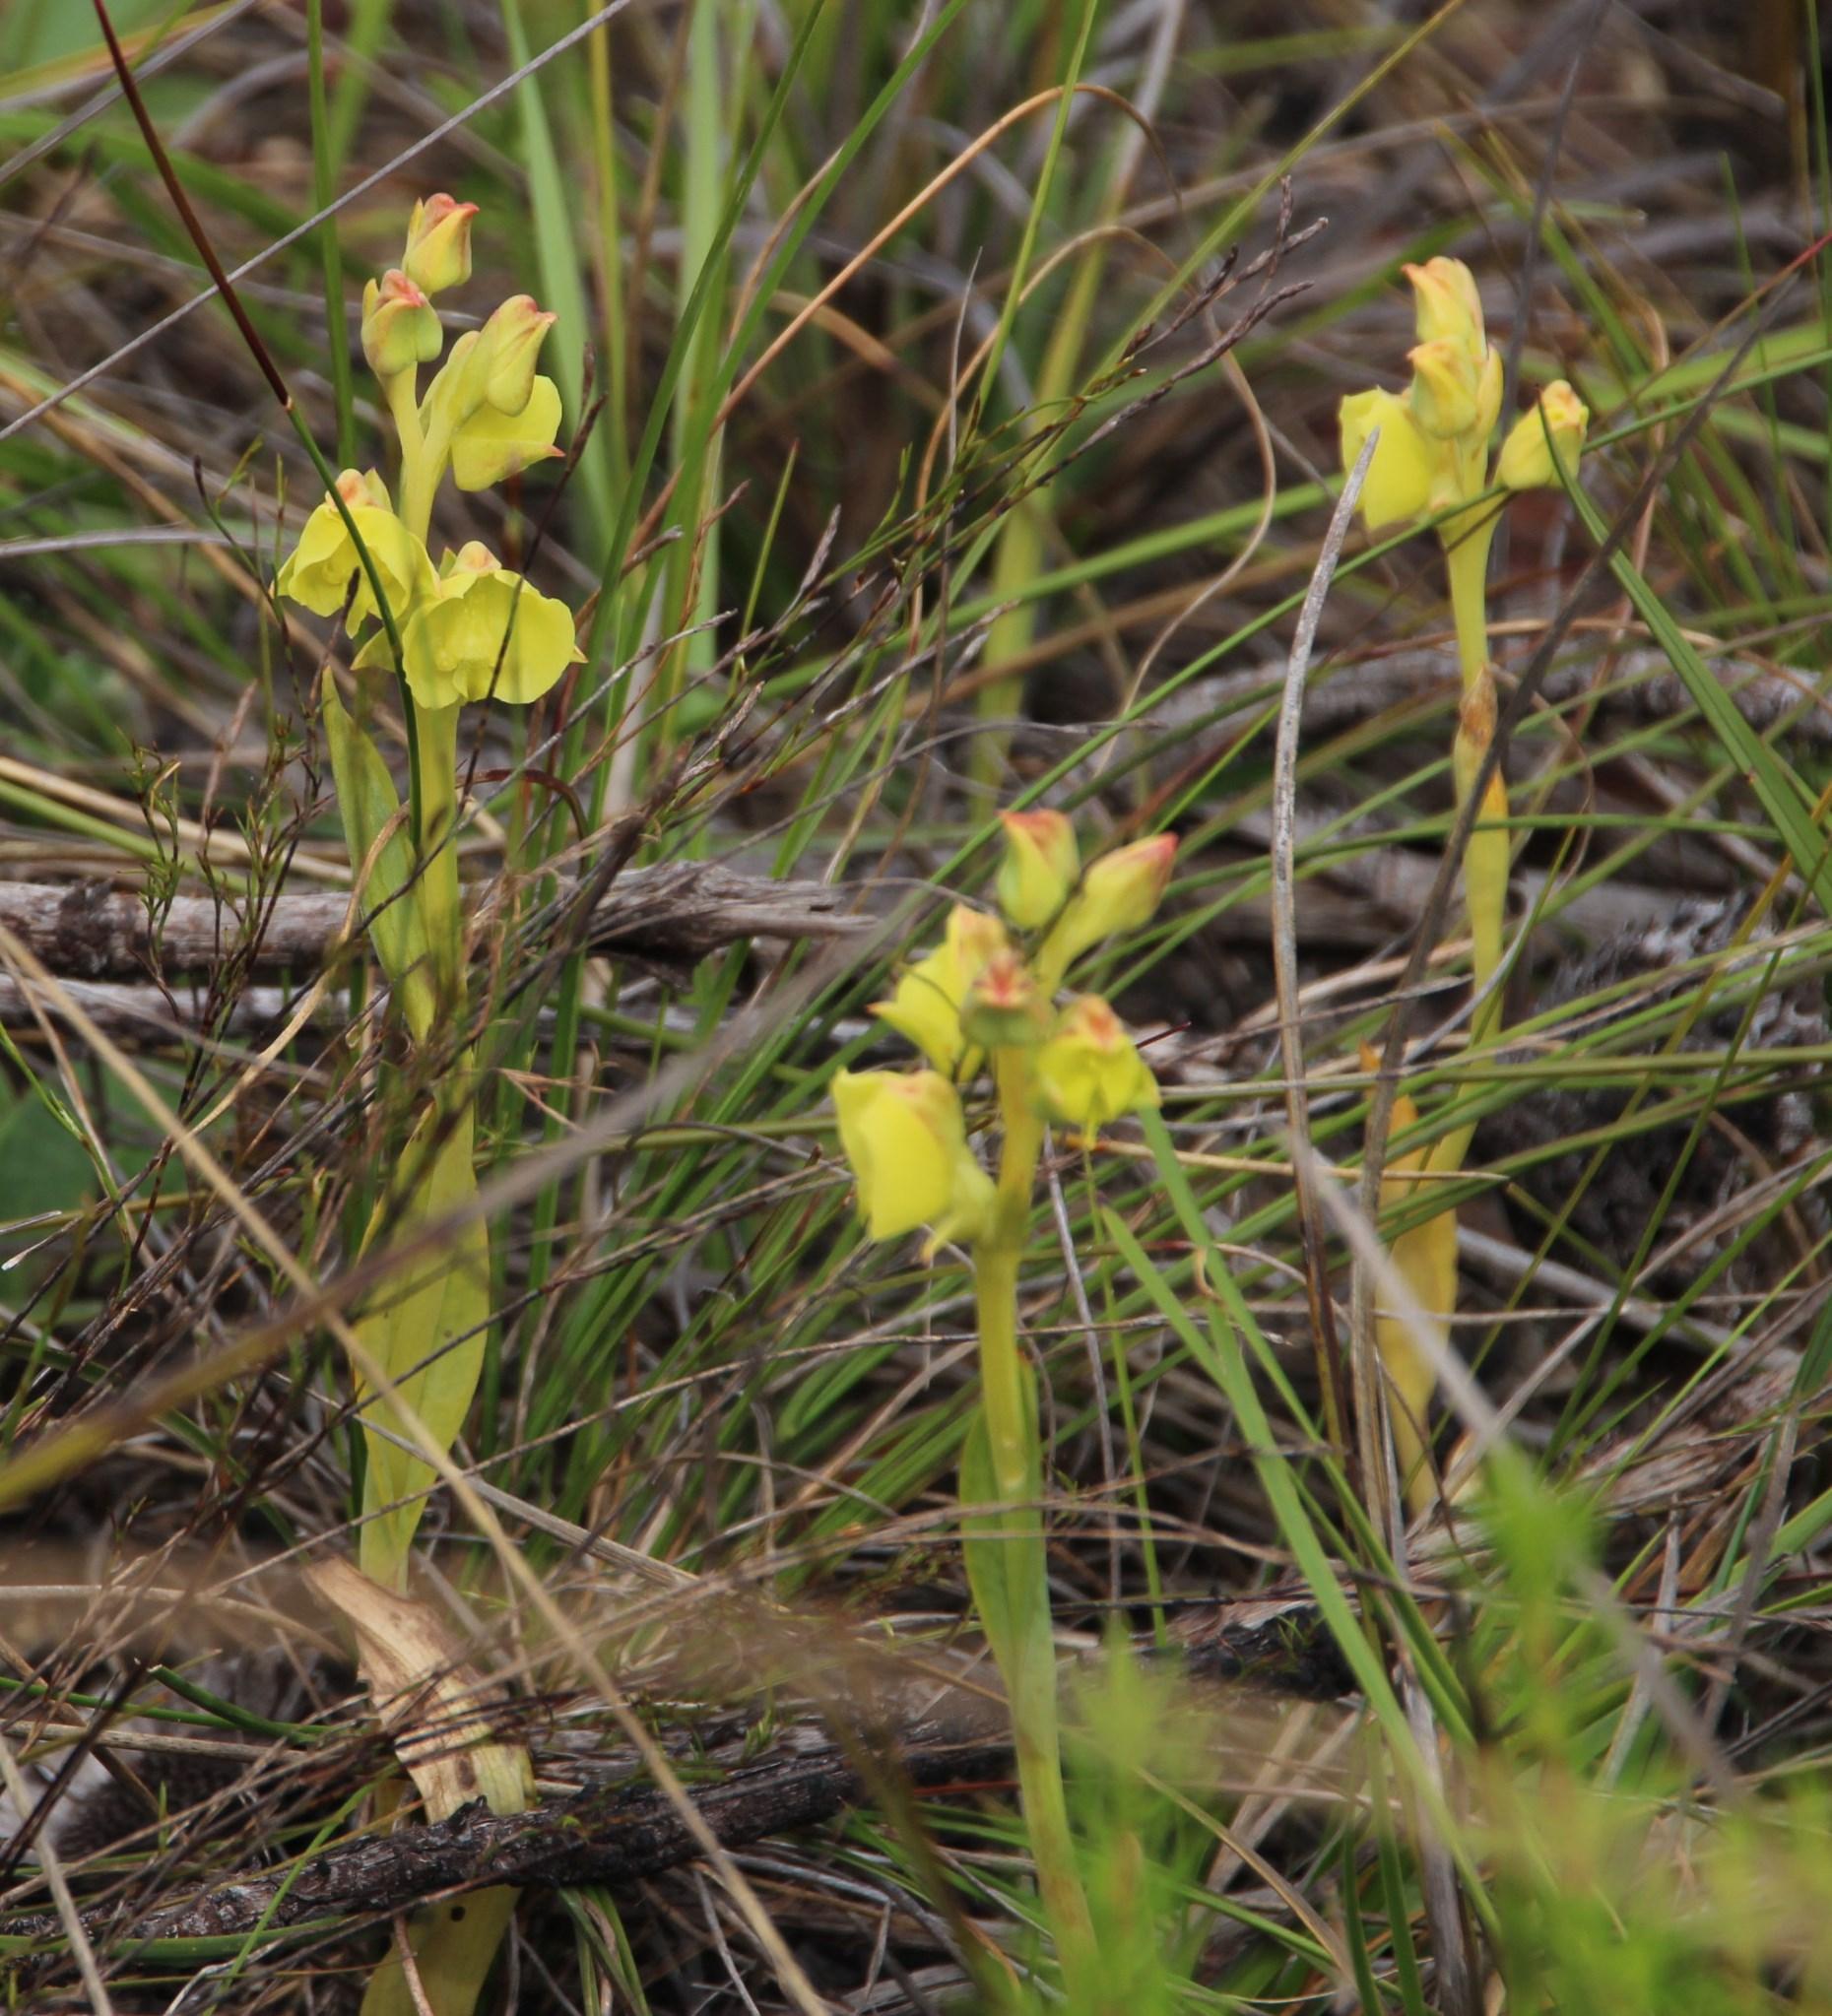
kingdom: Plantae
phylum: Tracheophyta
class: Liliopsida
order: Asparagales
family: Orchidaceae
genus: Pterygodium
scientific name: Pterygodium catholicum
